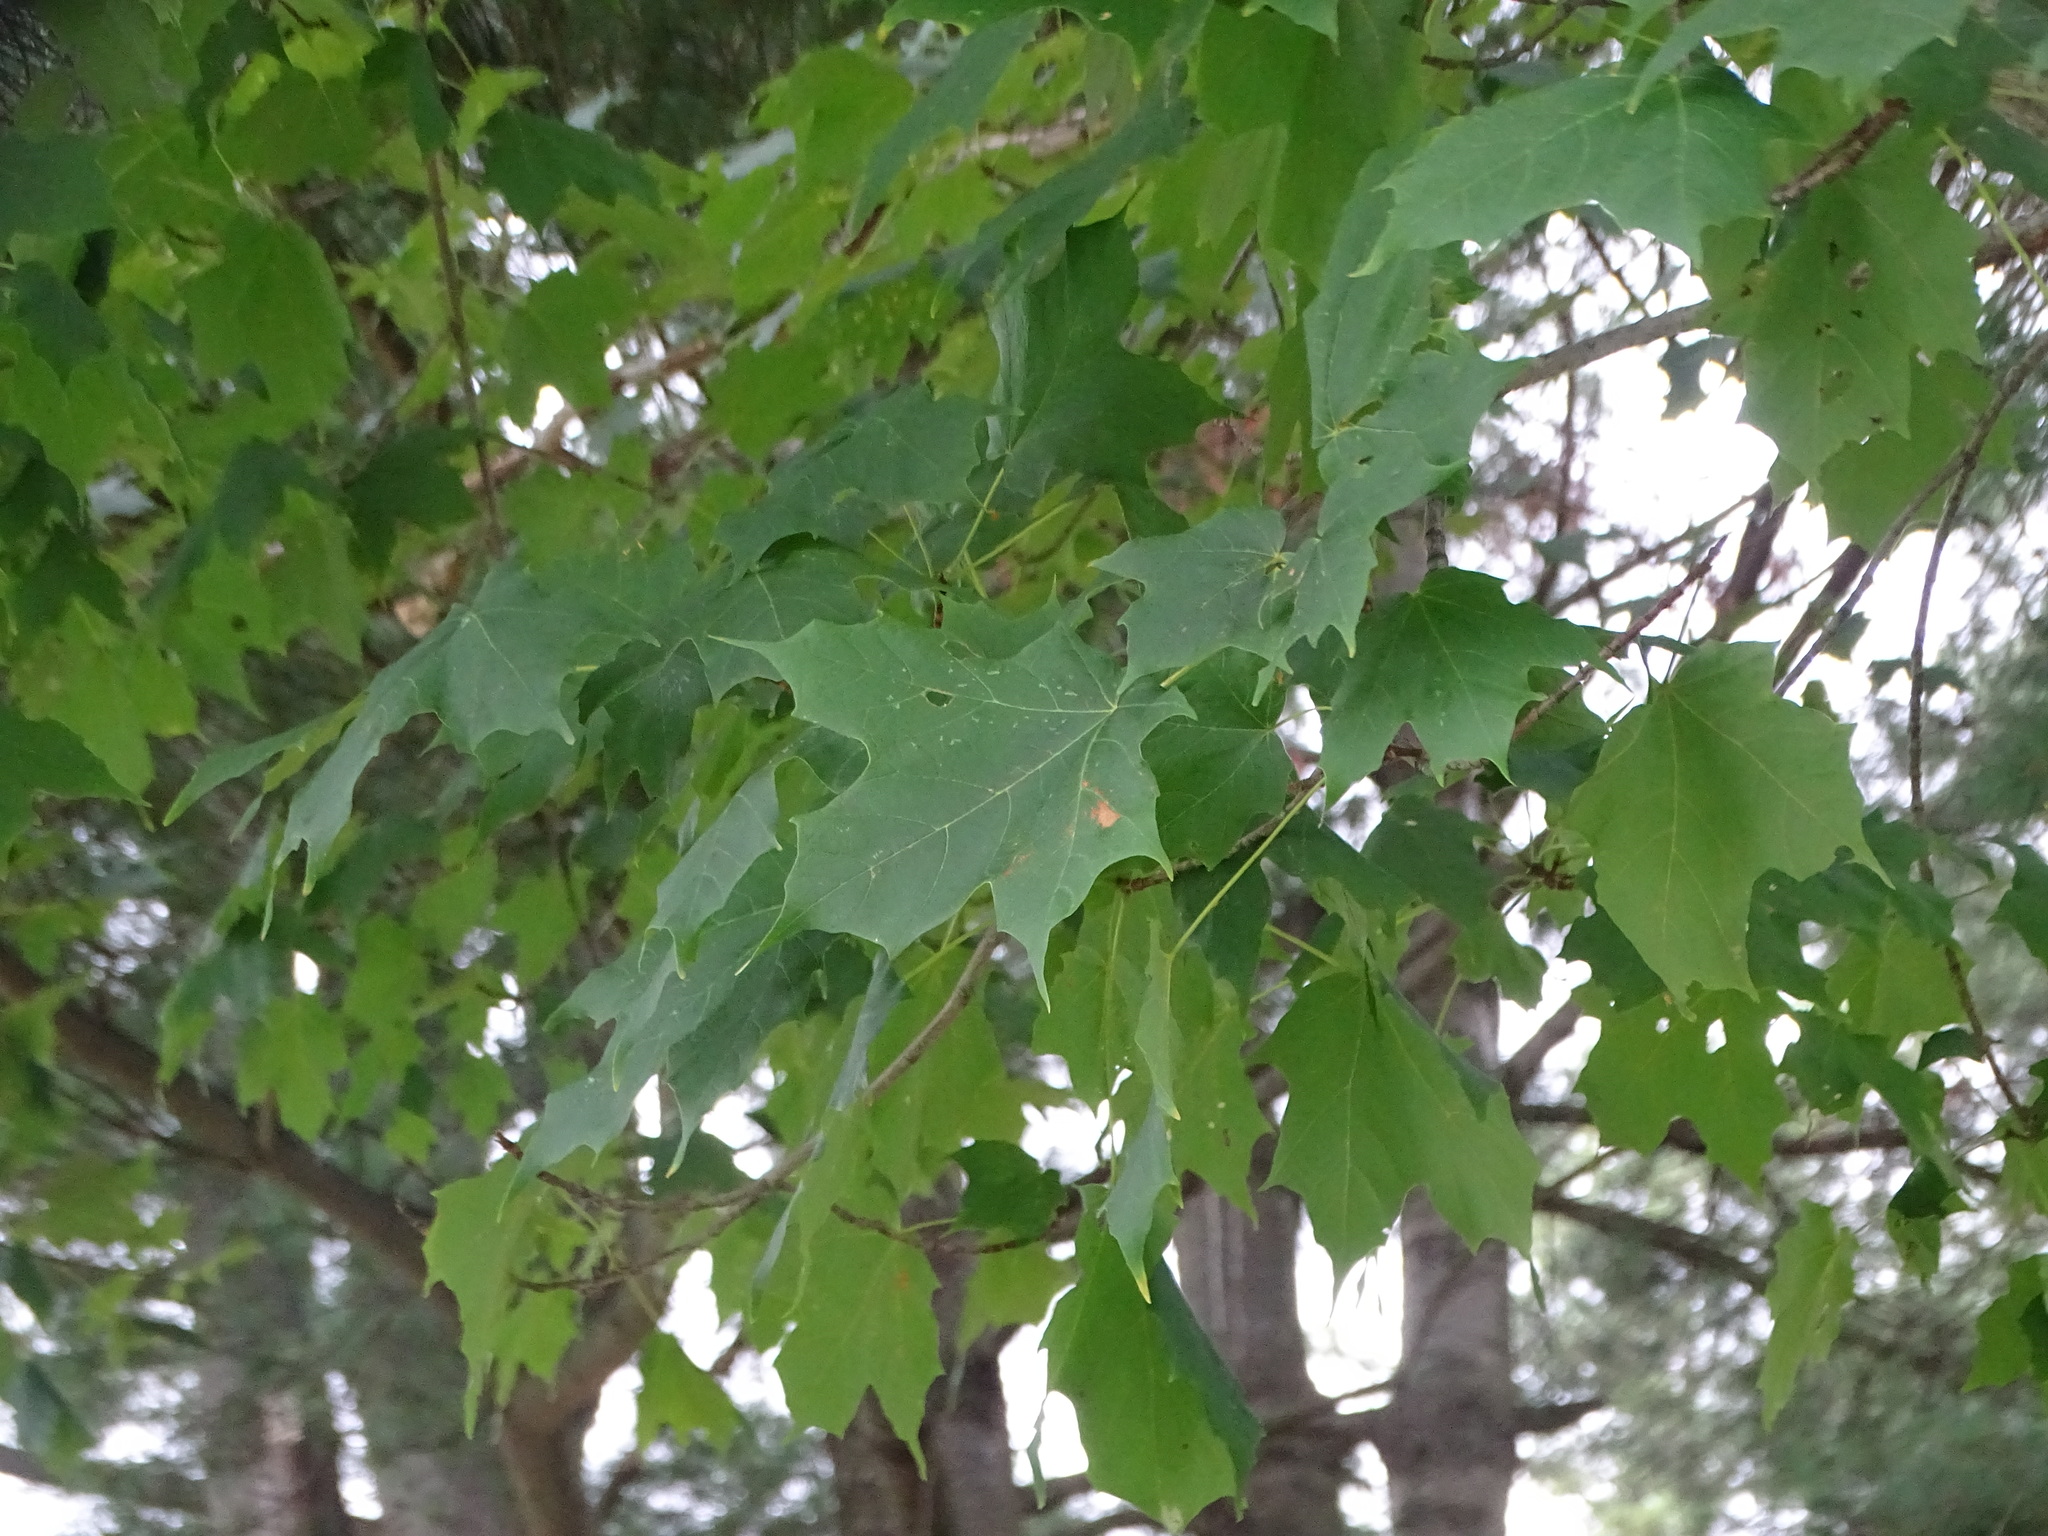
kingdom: Plantae
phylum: Tracheophyta
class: Magnoliopsida
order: Sapindales
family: Sapindaceae
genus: Acer
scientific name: Acer saccharum
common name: Sugar maple
